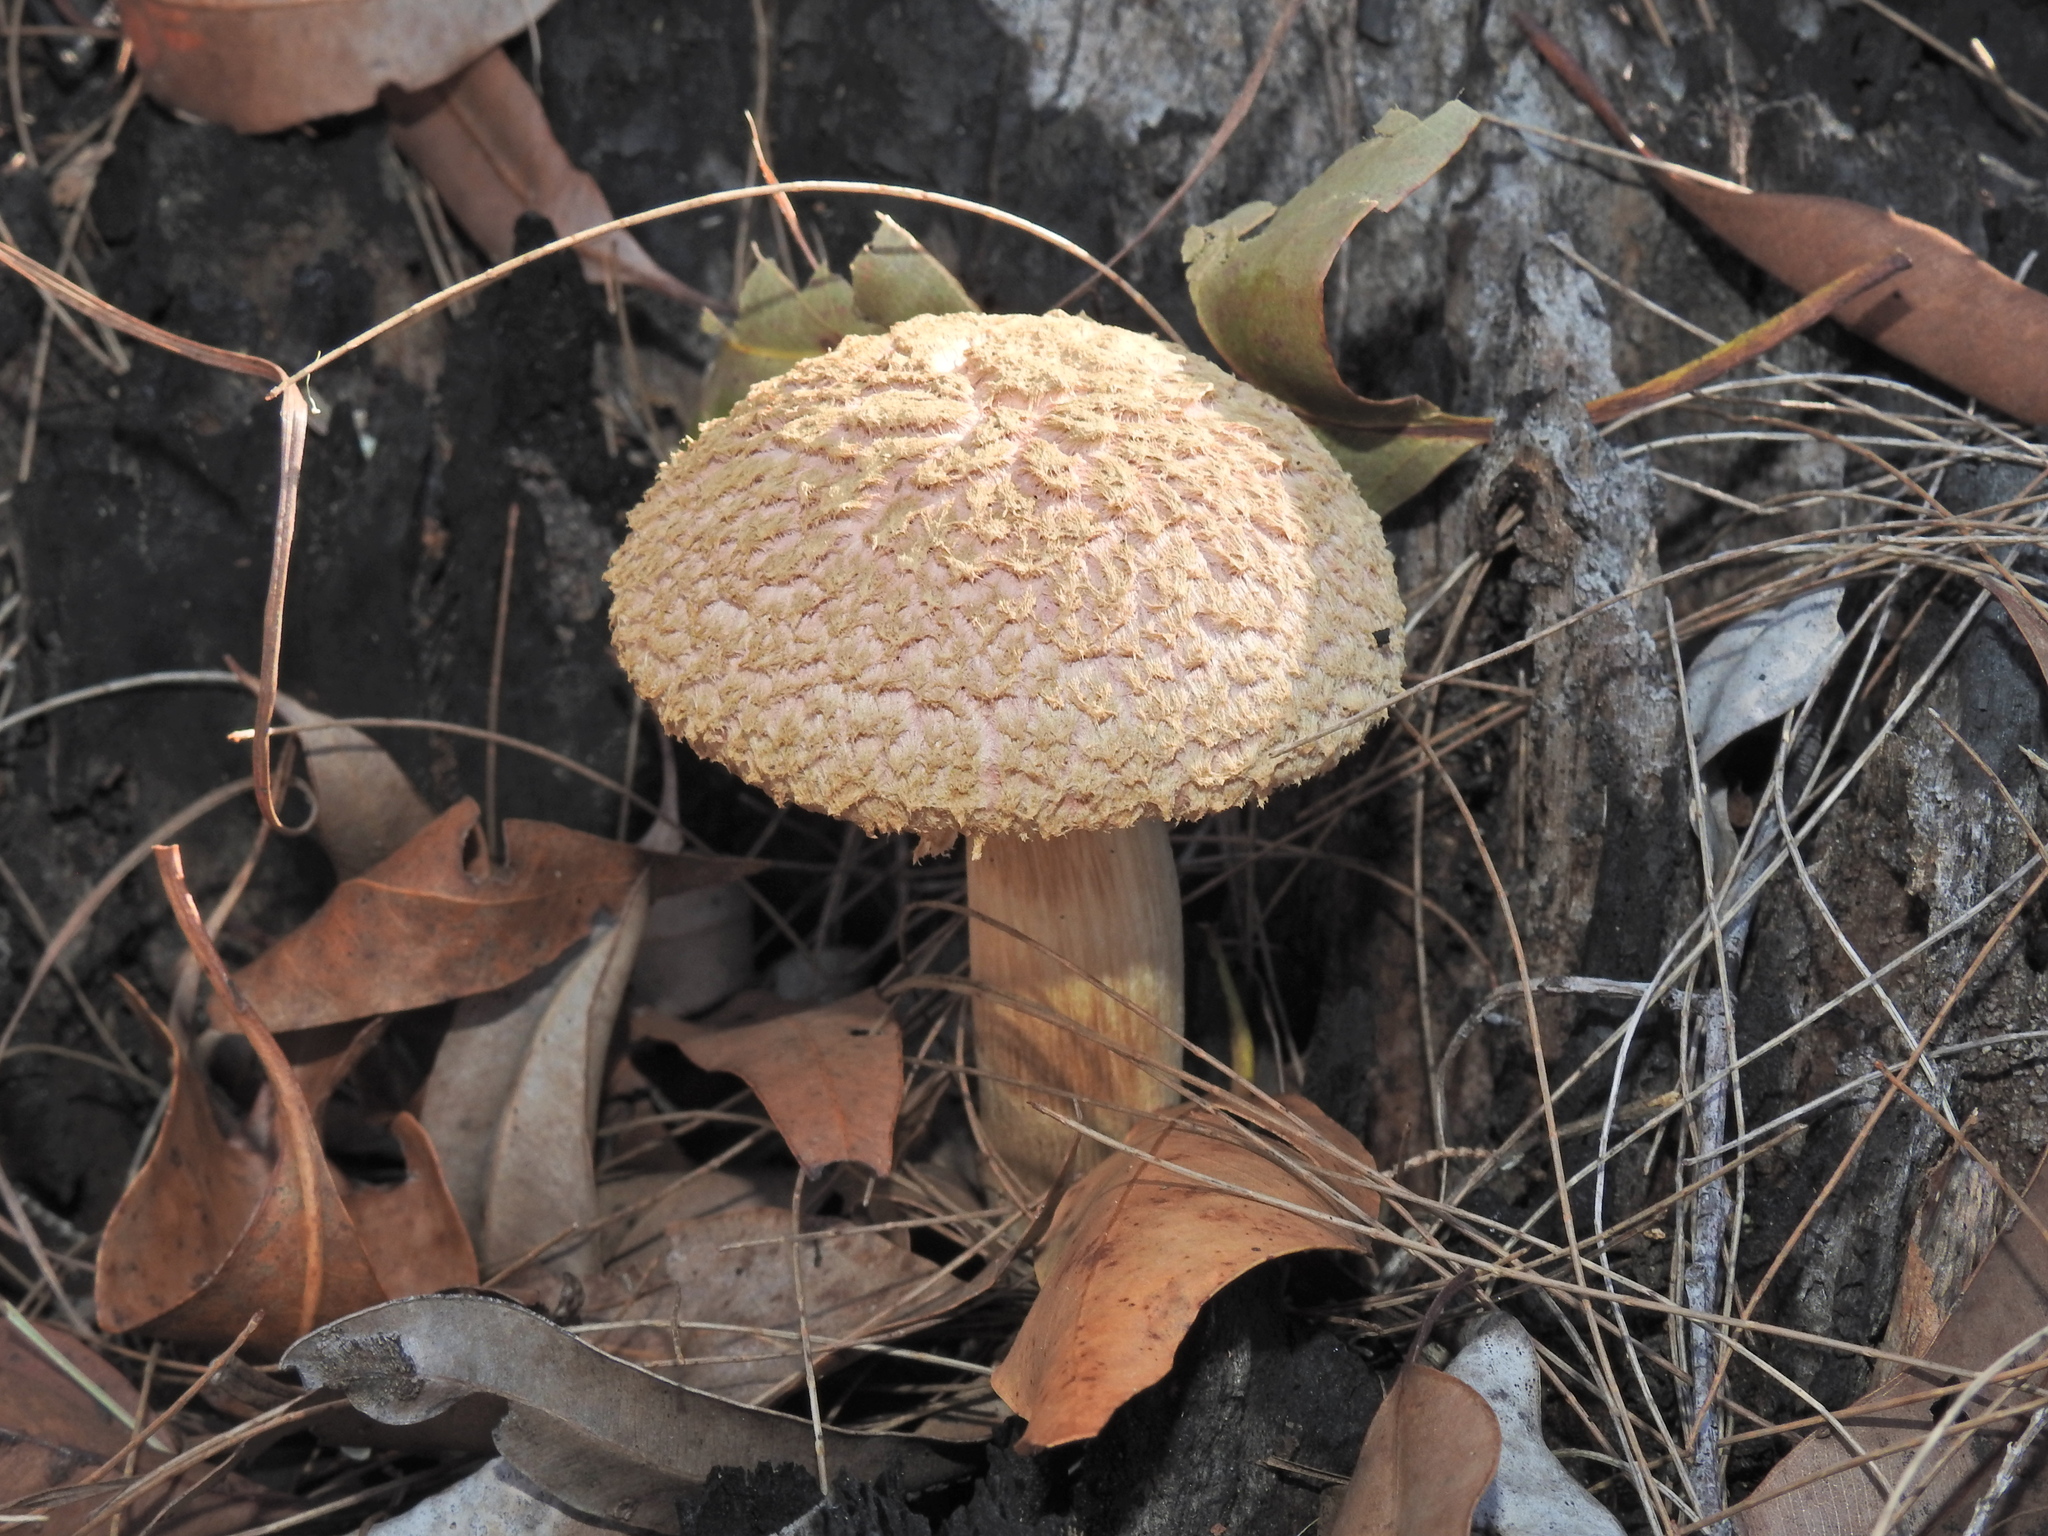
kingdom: Fungi
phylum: Basidiomycota
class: Agaricomycetes
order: Boletales
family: Boletaceae
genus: Strobilomyces
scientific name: Strobilomyces ananiceps
